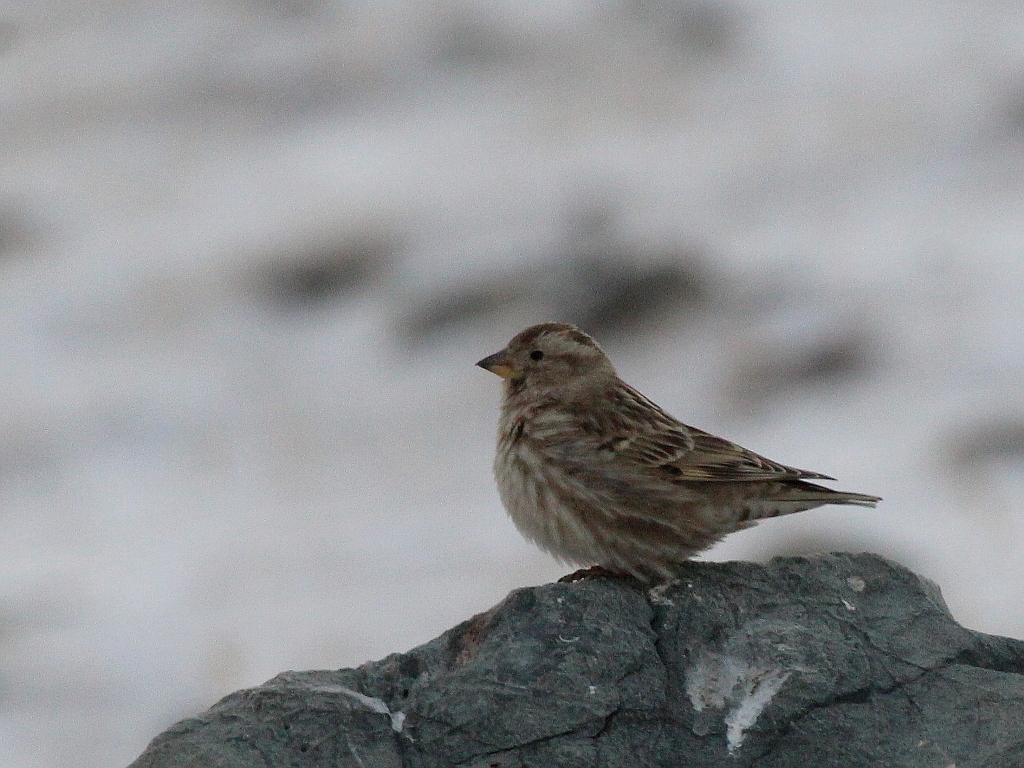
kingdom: Animalia
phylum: Chordata
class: Aves
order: Passeriformes
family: Passeridae
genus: Petronia
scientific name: Petronia petronia
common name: Rock sparrow
